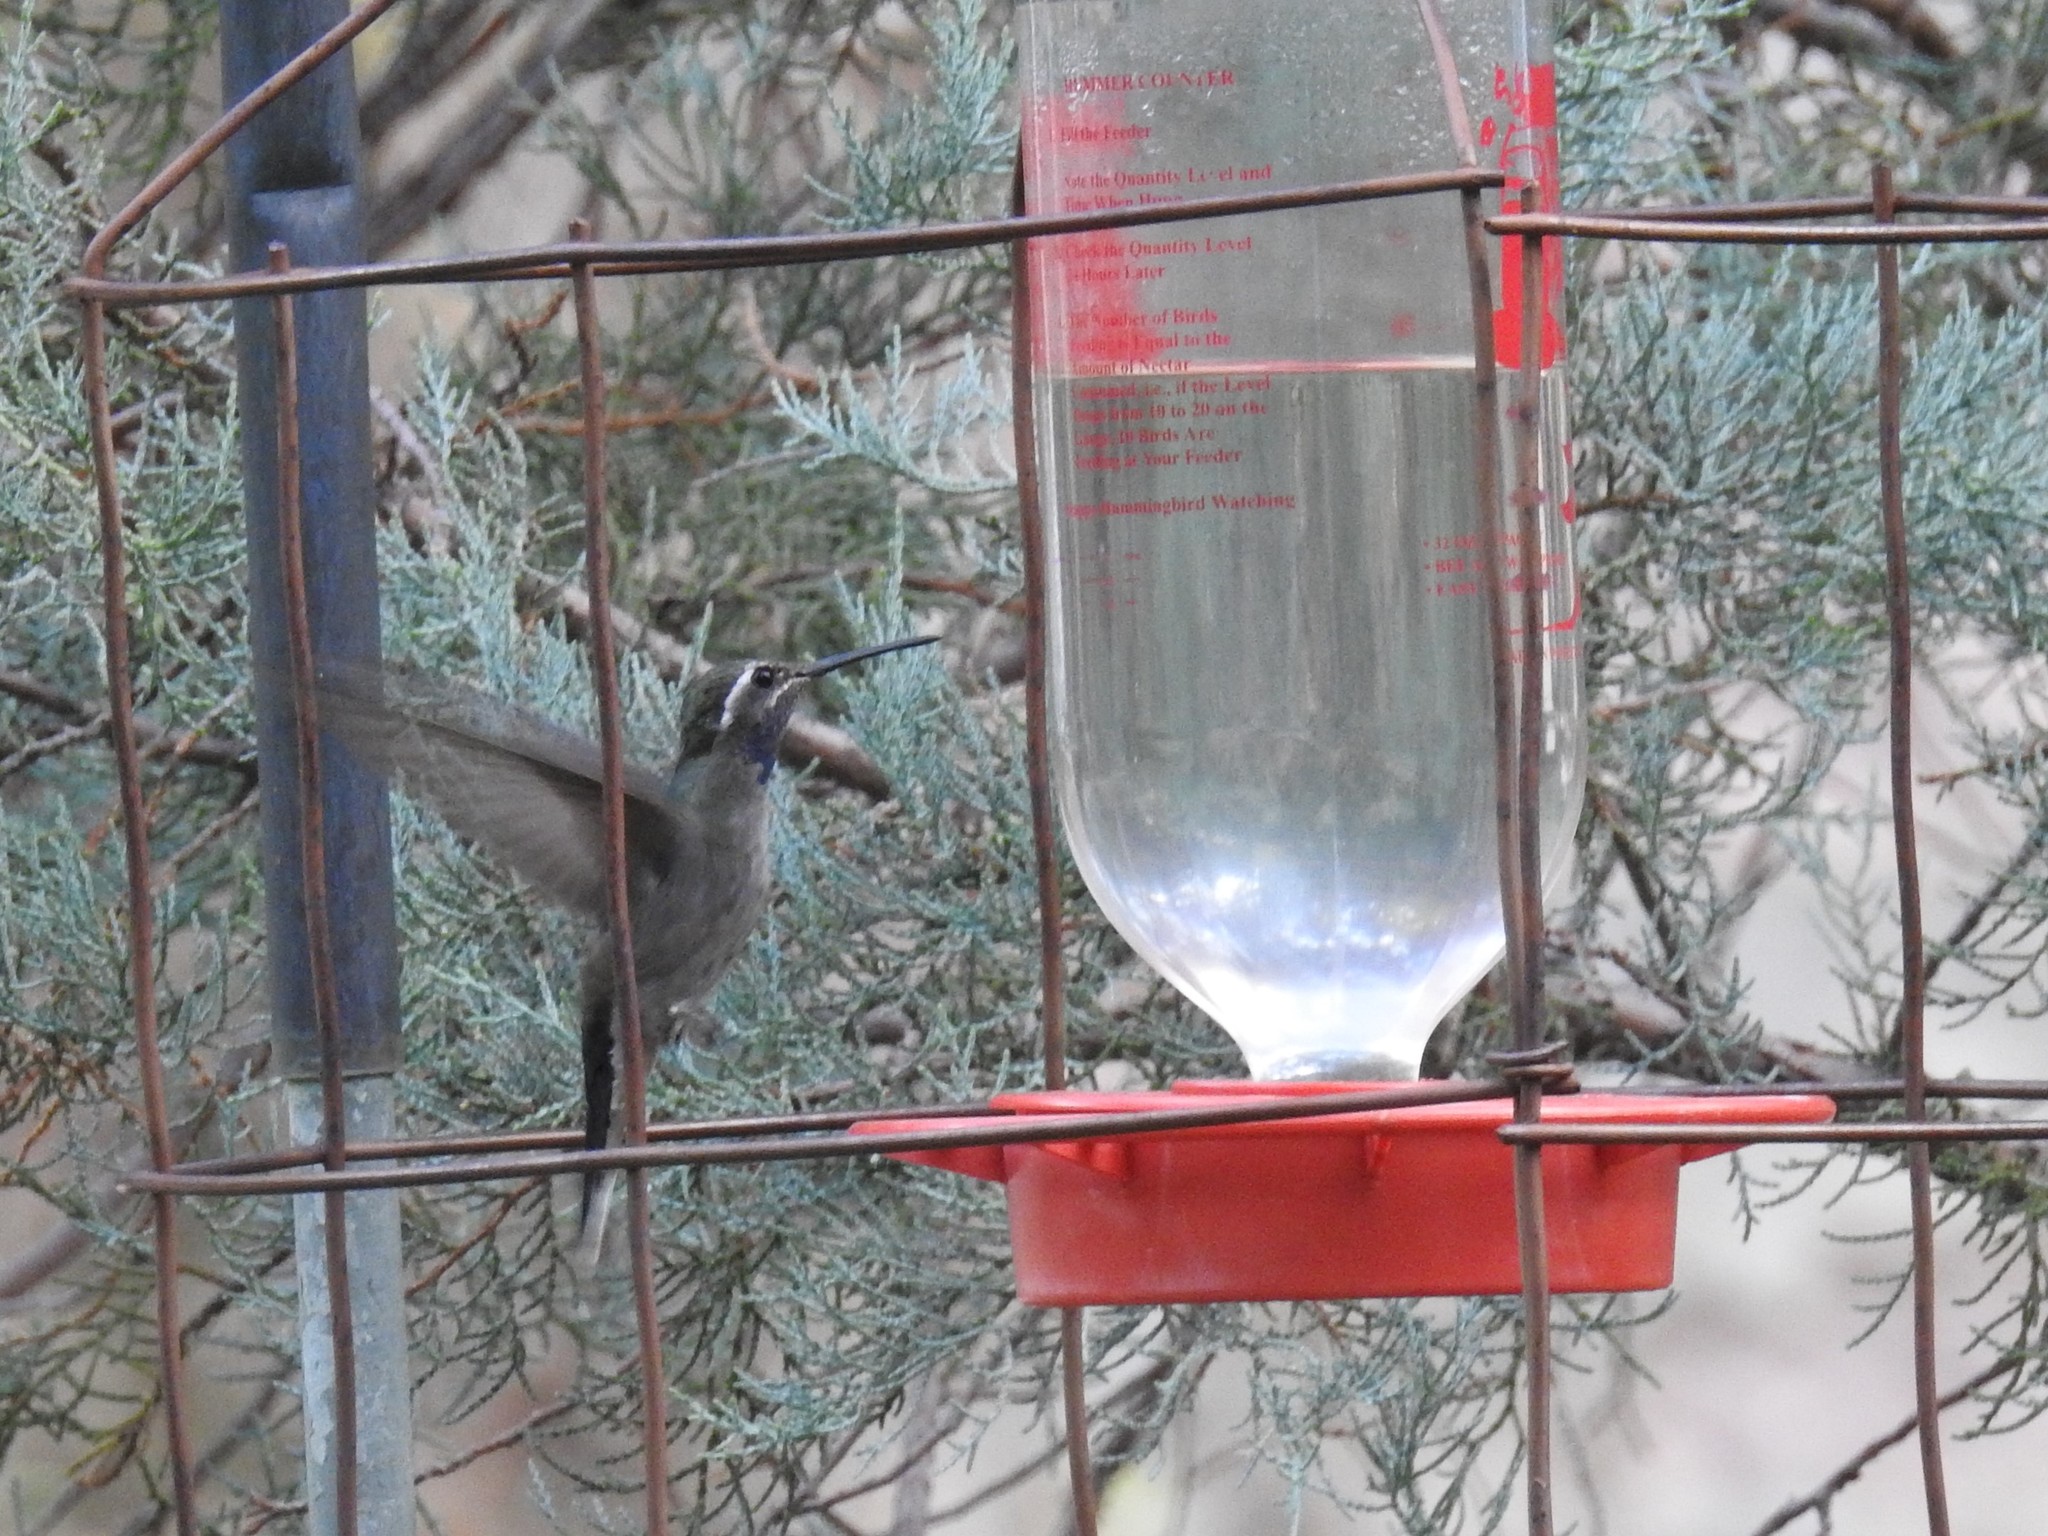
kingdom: Animalia
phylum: Chordata
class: Aves
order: Apodiformes
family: Trochilidae
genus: Lampornis
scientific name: Lampornis clemenciae
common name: Blue-throated mountaingem
